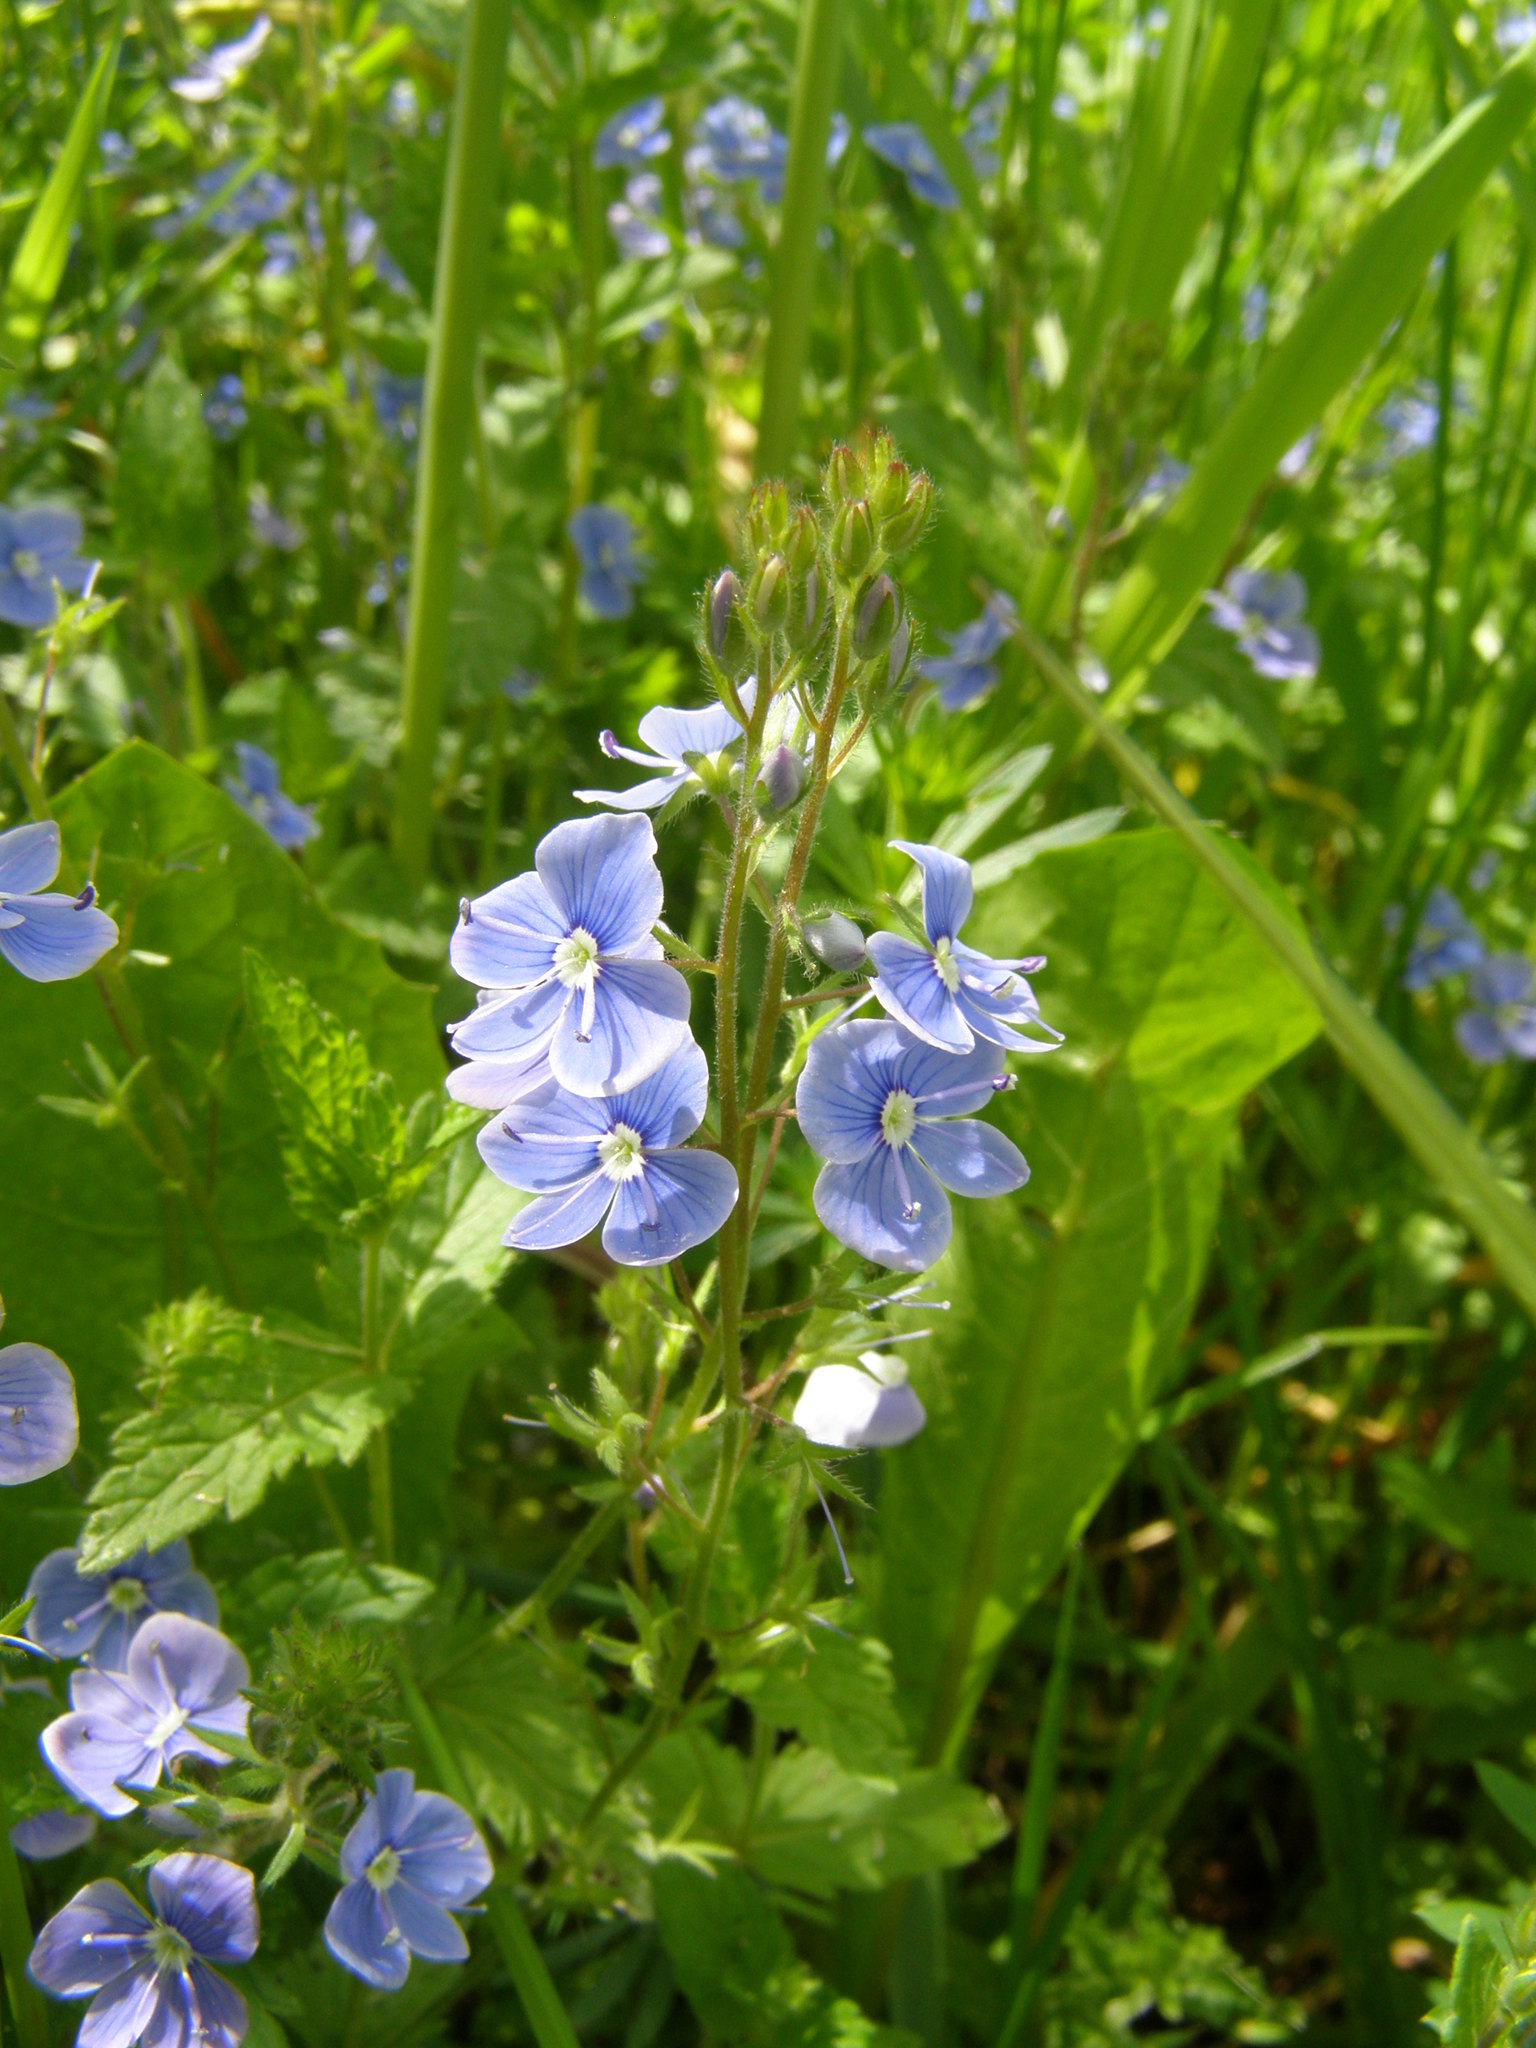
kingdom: Plantae
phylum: Tracheophyta
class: Magnoliopsida
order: Lamiales
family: Plantaginaceae
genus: Veronica
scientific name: Veronica chamaedrys
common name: Germander speedwell
